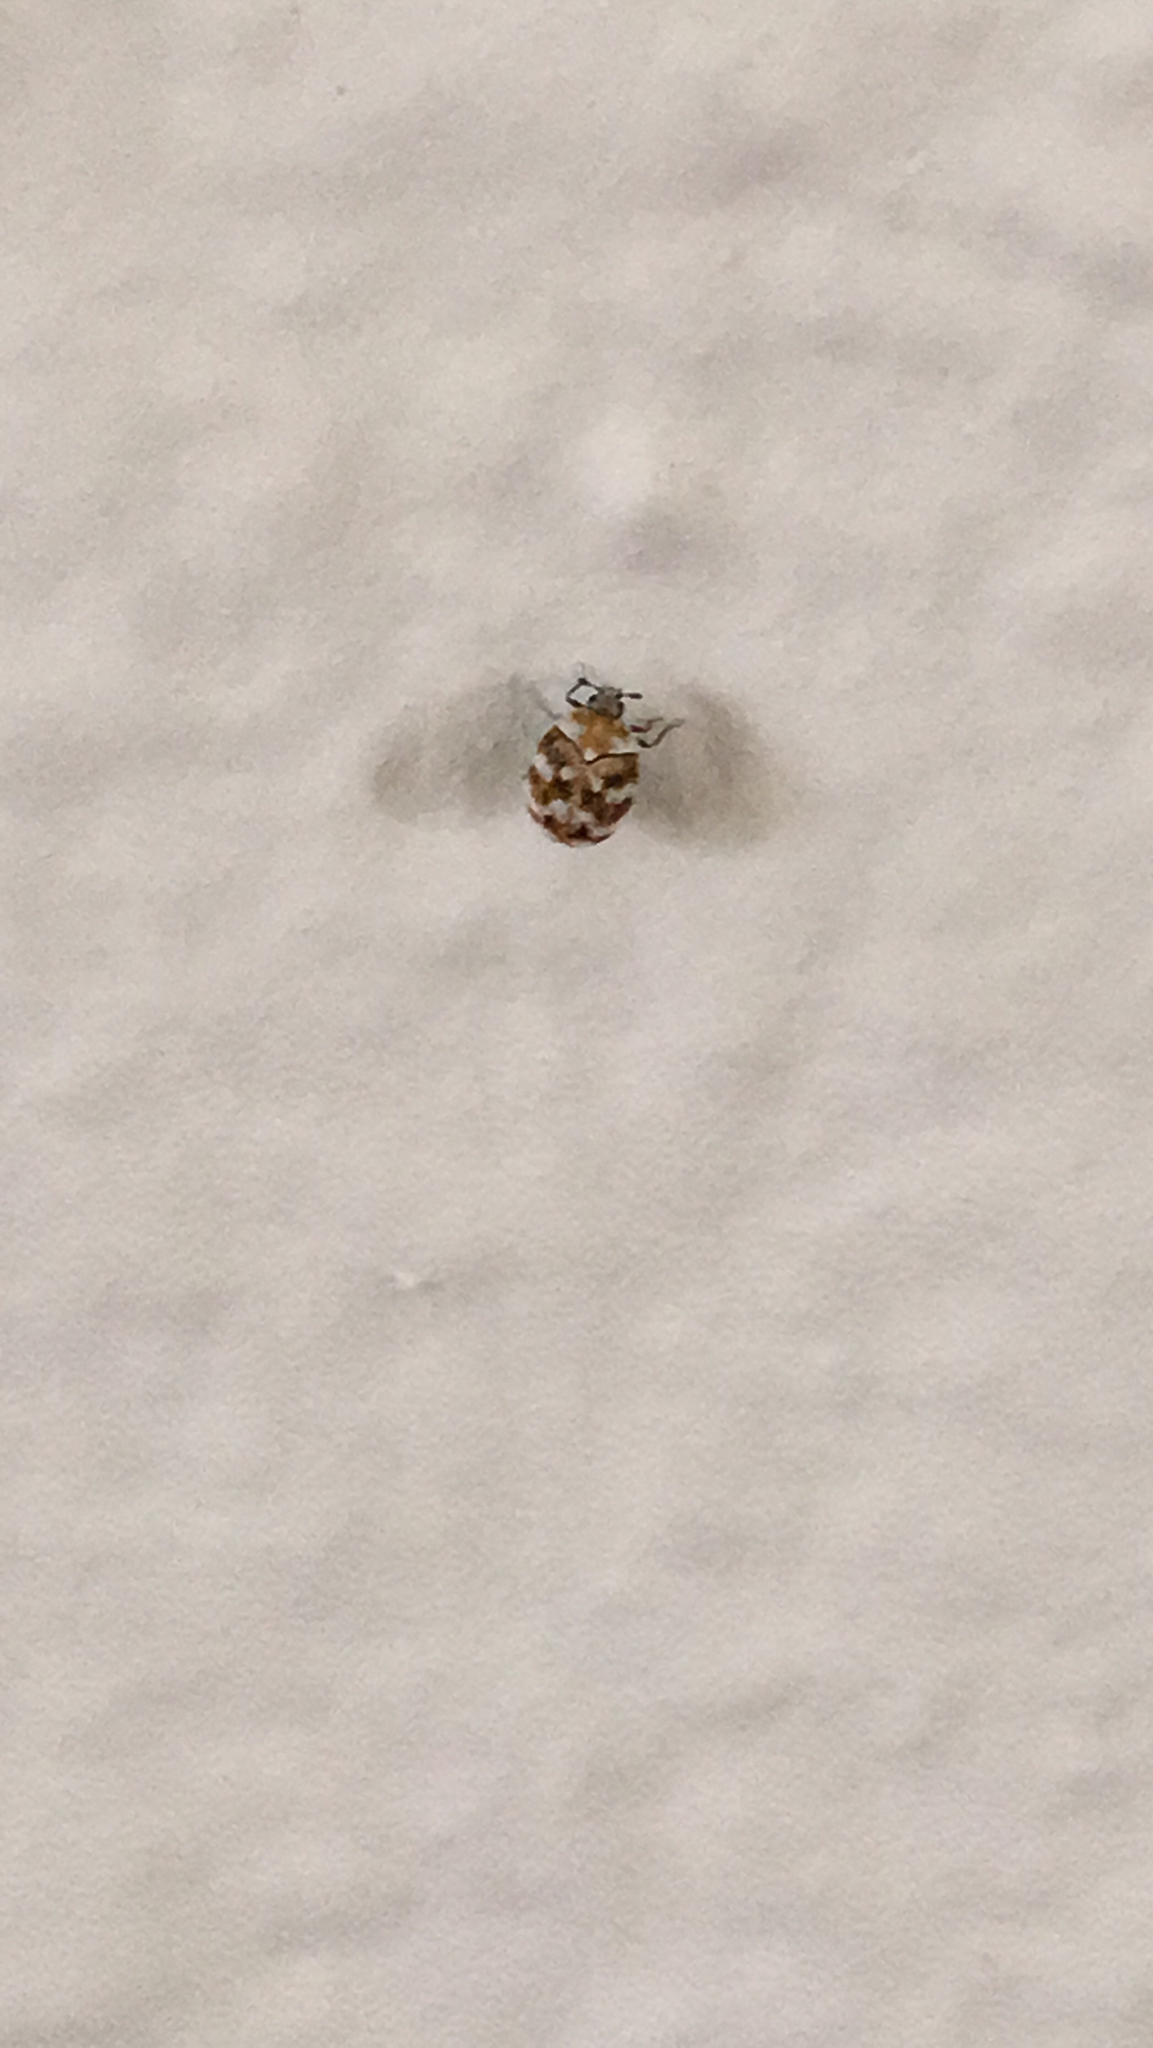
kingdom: Animalia
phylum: Arthropoda
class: Insecta
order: Coleoptera
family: Dermestidae
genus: Anthrenus
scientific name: Anthrenus verbasci
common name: Varied carpet beetle
